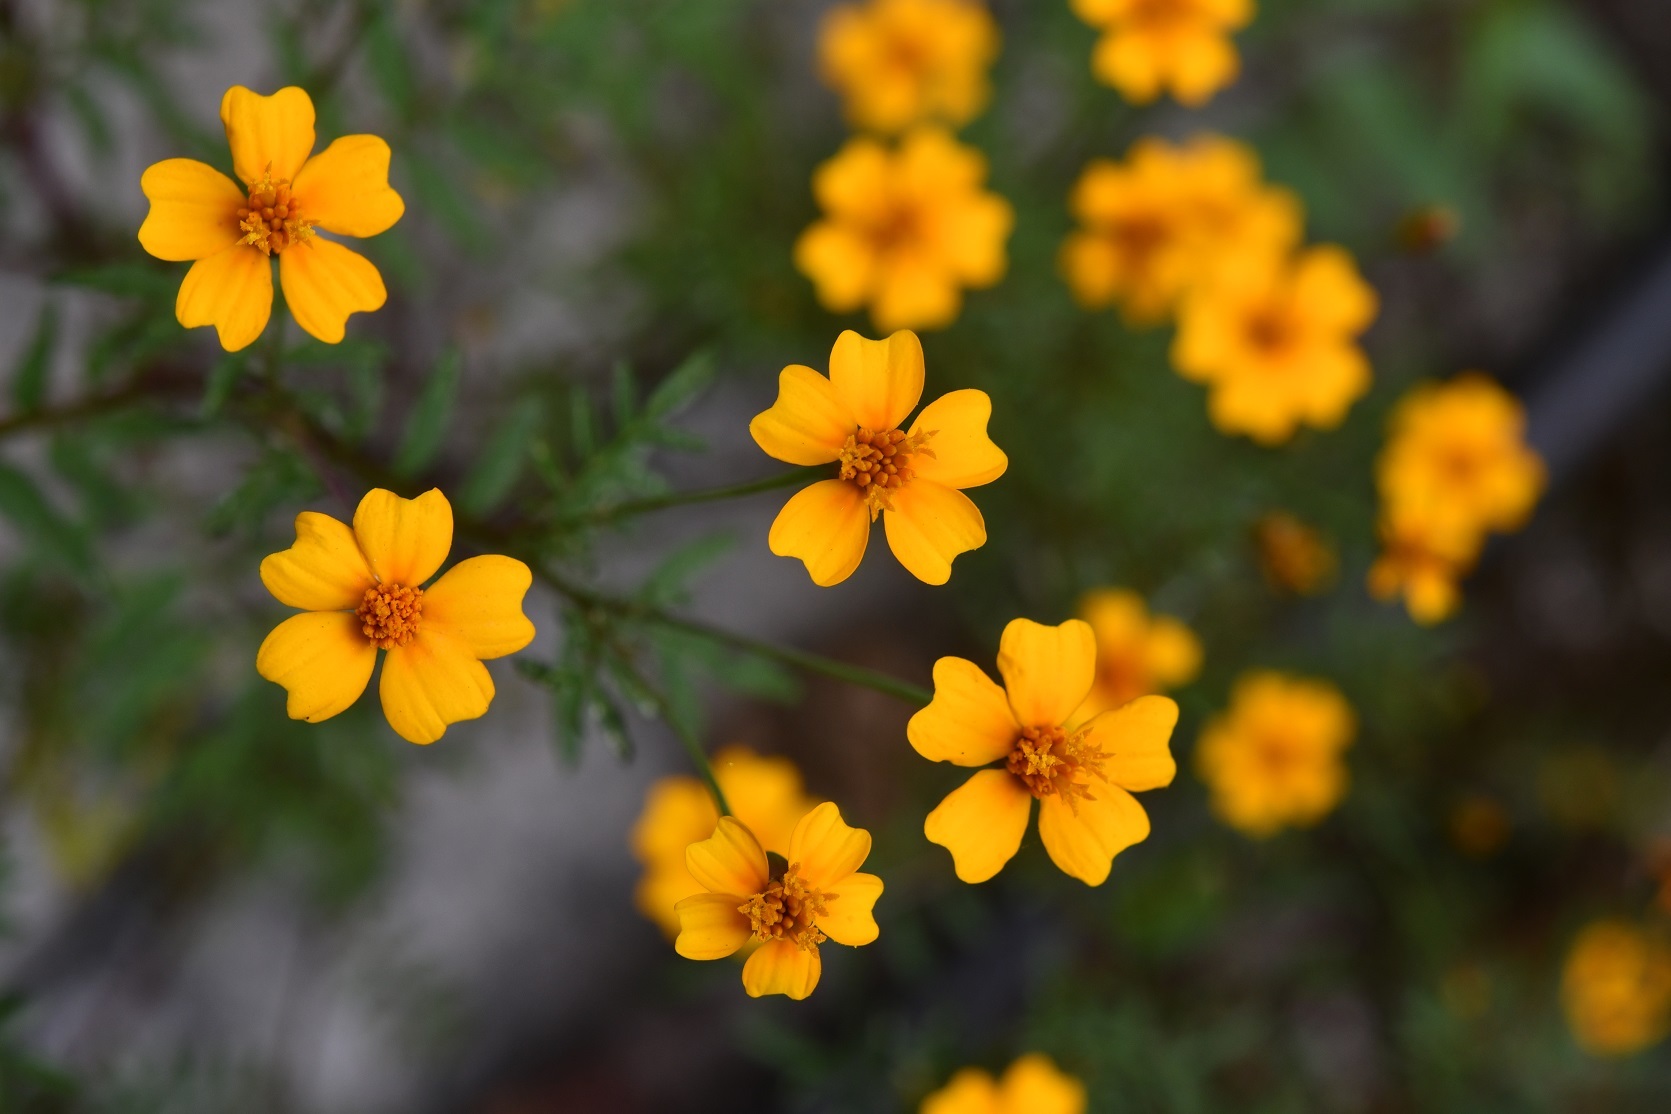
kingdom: Plantae
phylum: Tracheophyta
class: Magnoliopsida
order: Asterales
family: Asteraceae
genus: Tagetes
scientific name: Tagetes tenuifolia
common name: Signet marigold
